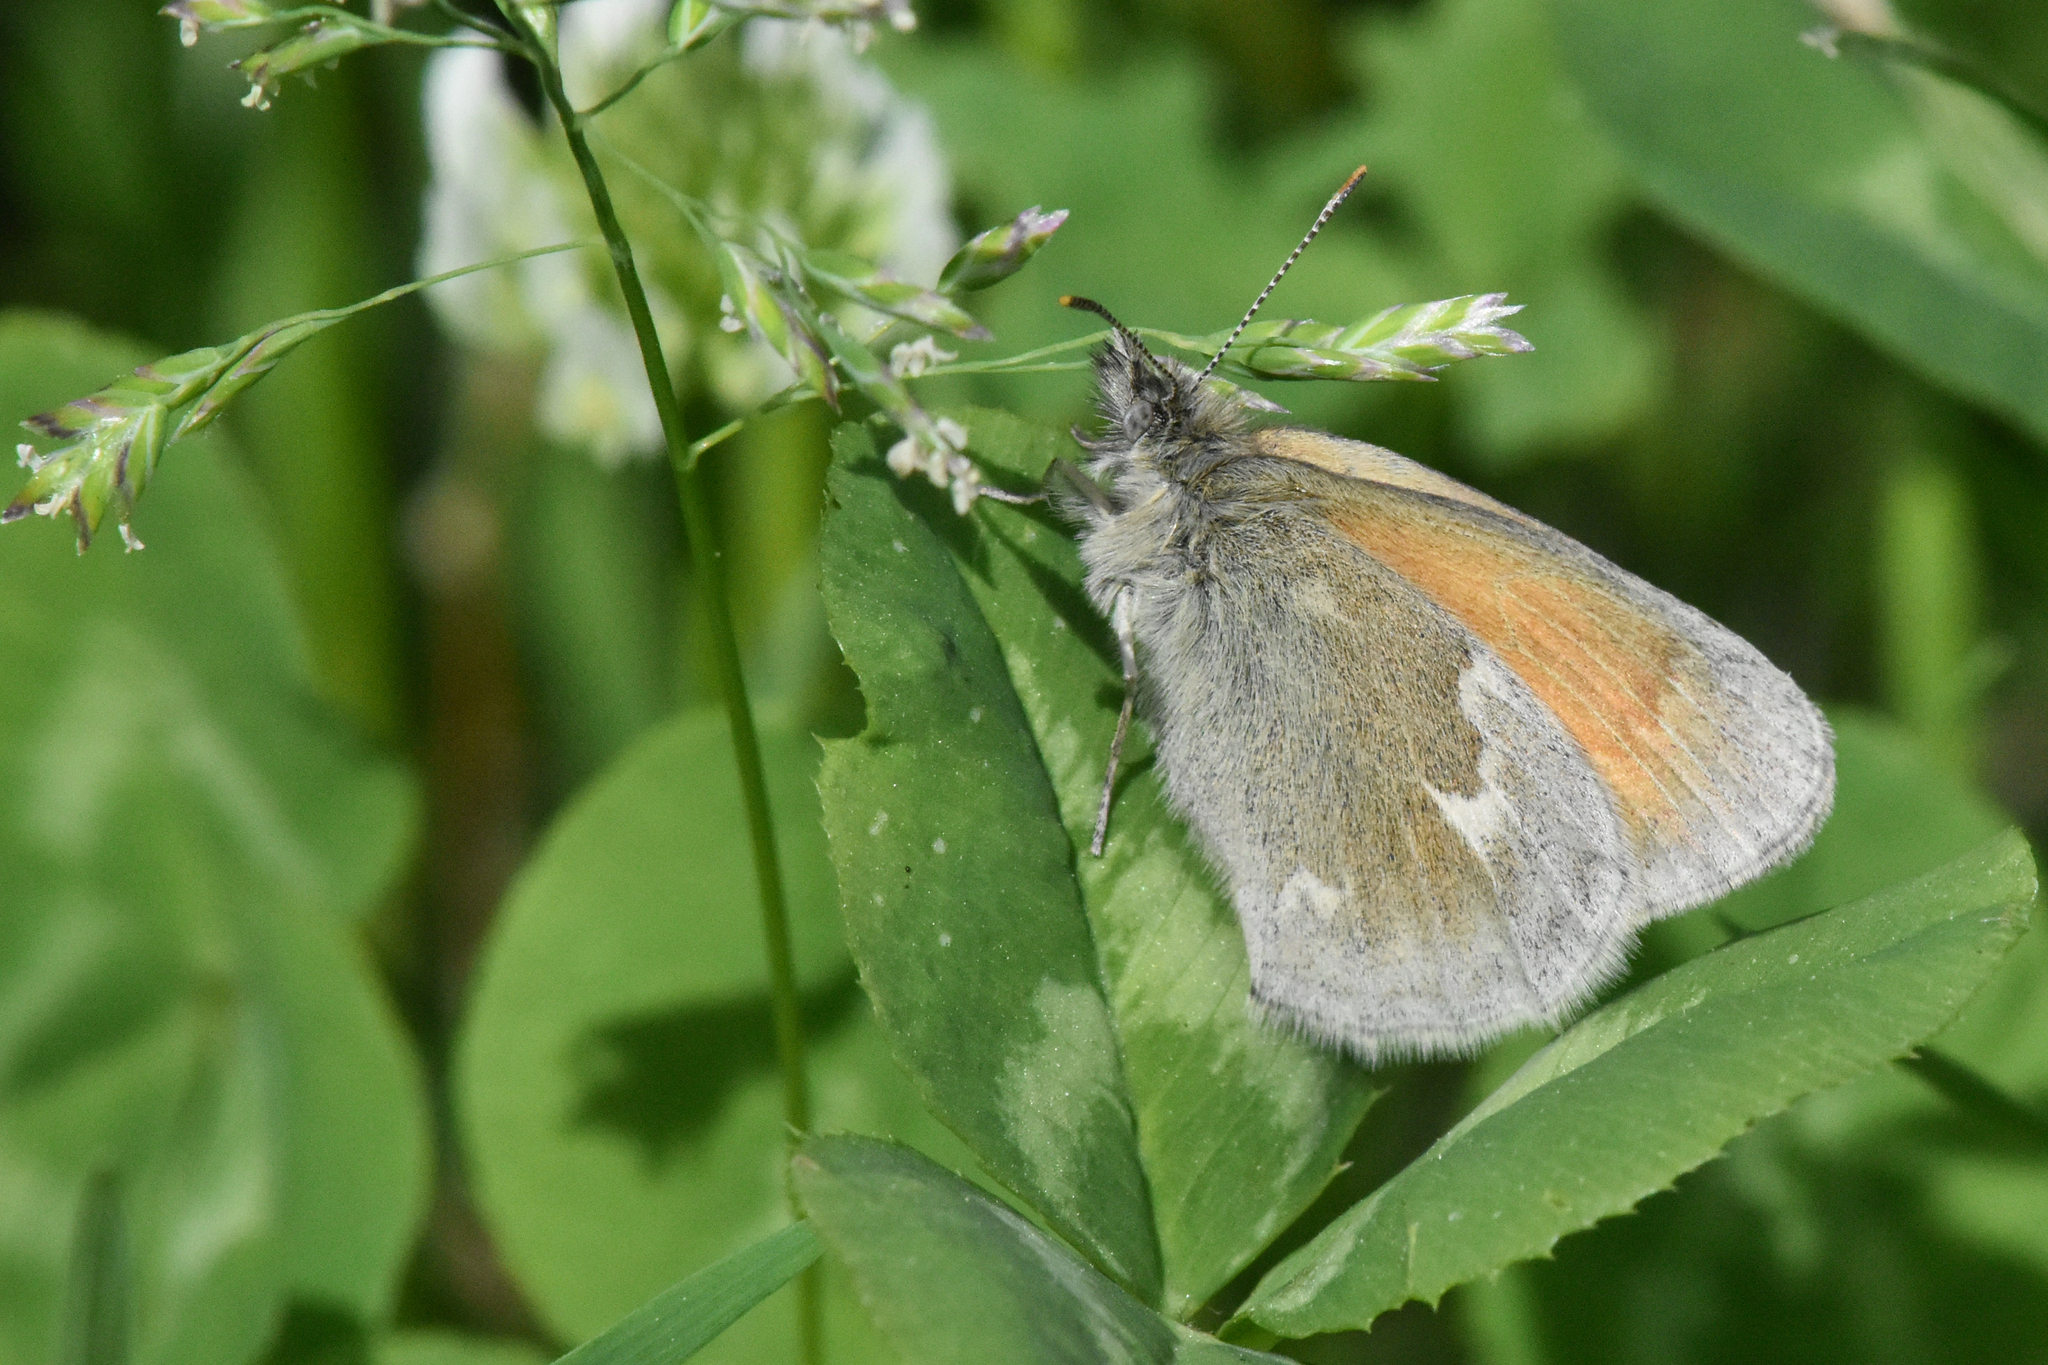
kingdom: Animalia
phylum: Arthropoda
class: Insecta
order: Lepidoptera
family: Nymphalidae
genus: Coenonympha
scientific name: Coenonympha california
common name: Common ringlet
